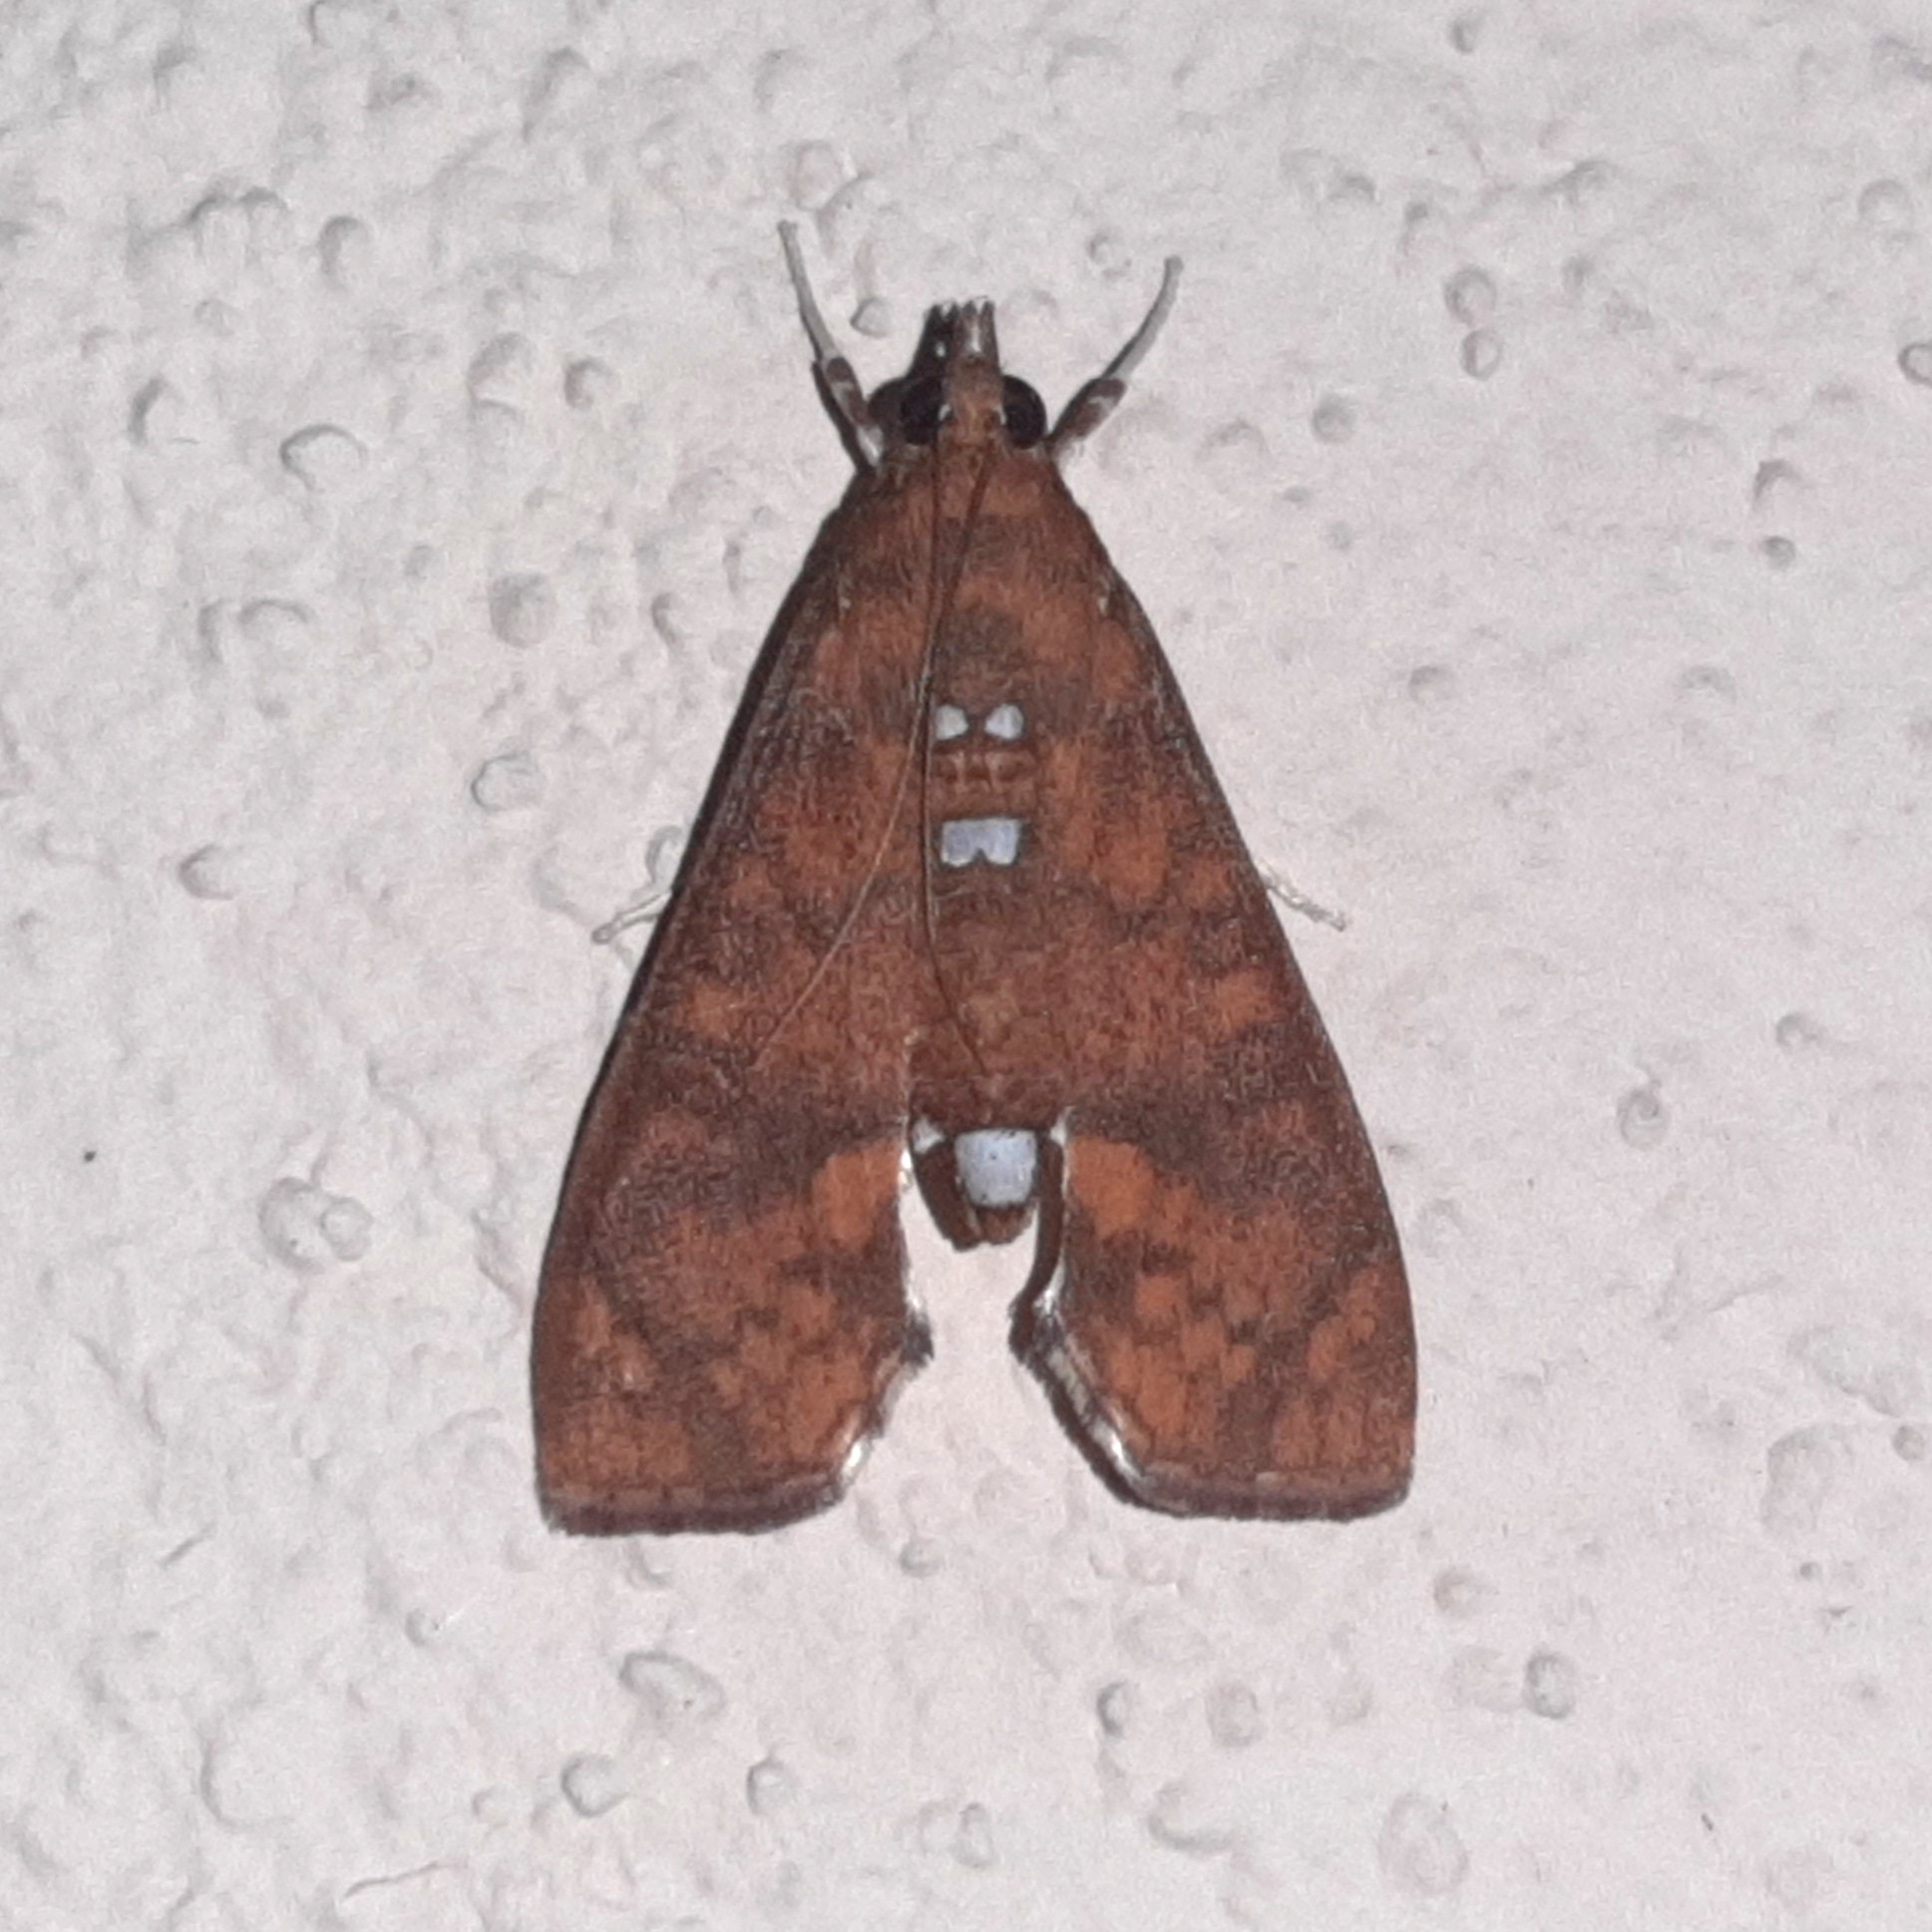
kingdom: Animalia
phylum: Arthropoda
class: Insecta
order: Lepidoptera
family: Crambidae
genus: Liopasia
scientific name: Liopasia ochracealis
